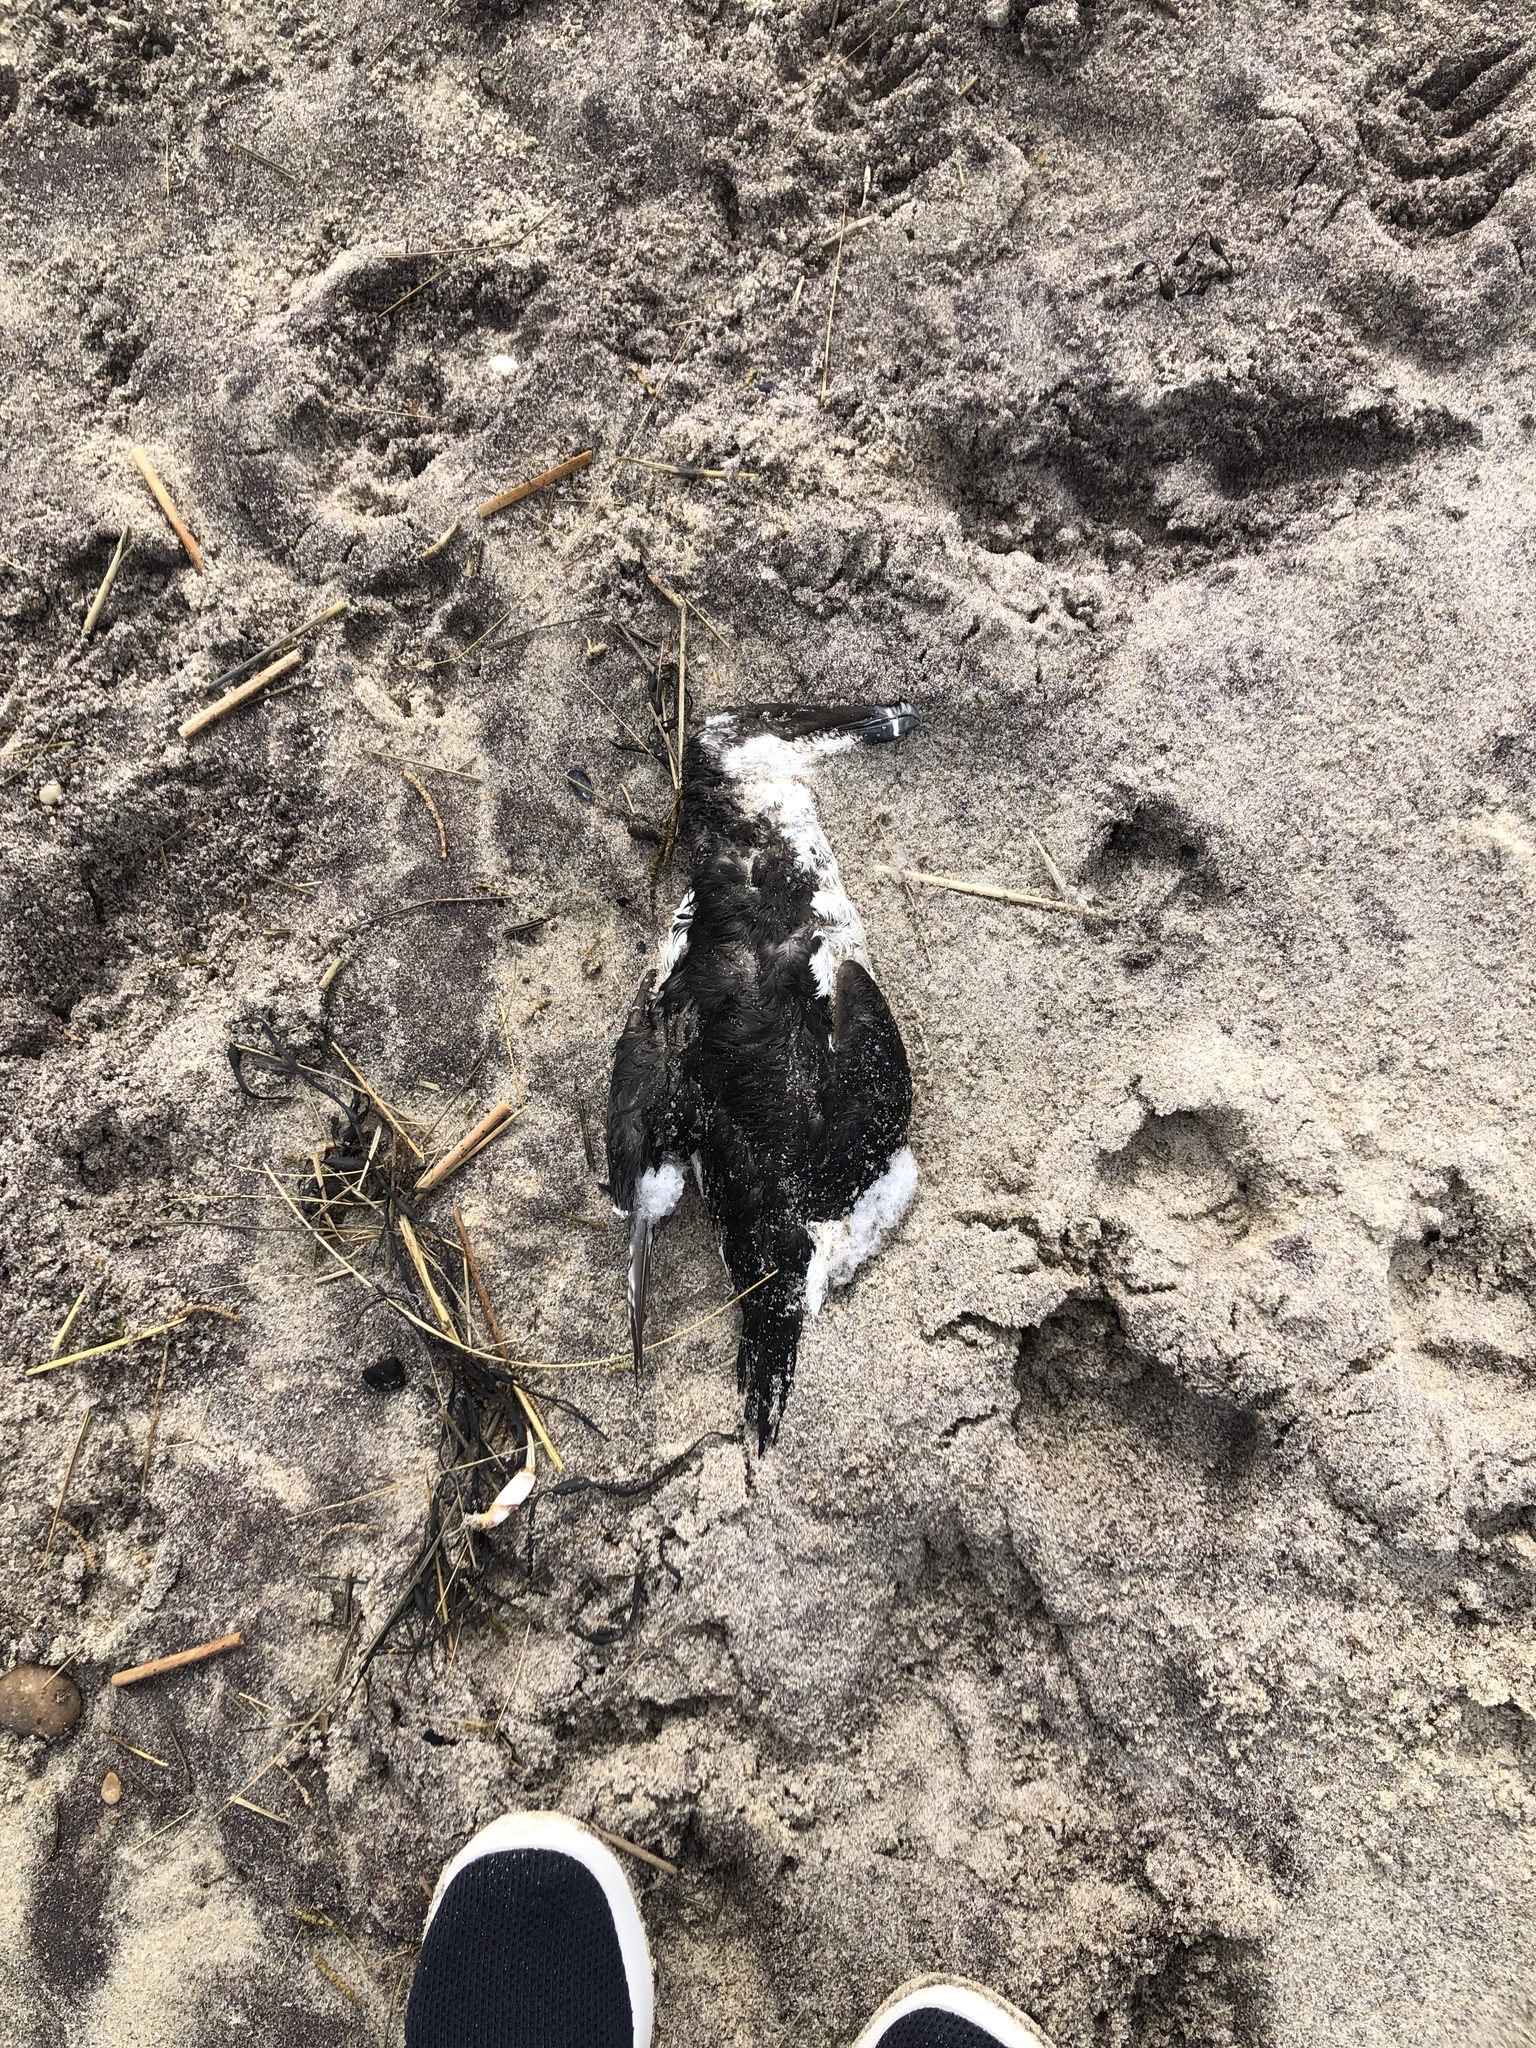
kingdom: Animalia
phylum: Chordata
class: Aves
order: Charadriiformes
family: Alcidae
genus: Alca
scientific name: Alca torda
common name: Razorbill
